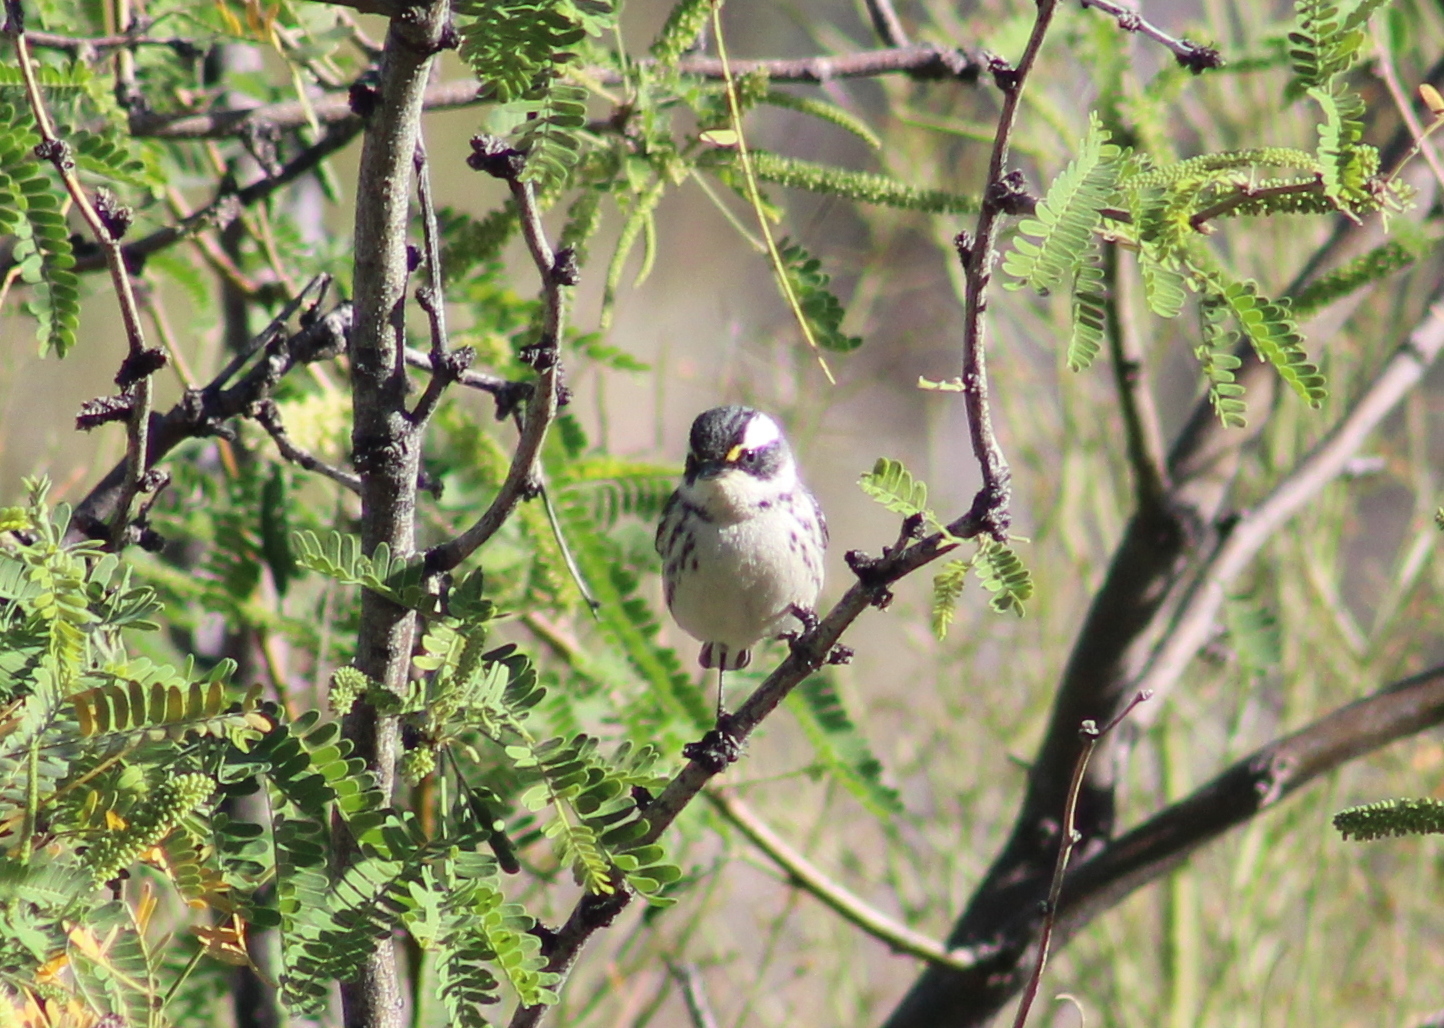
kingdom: Animalia
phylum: Chordata
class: Aves
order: Passeriformes
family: Parulidae
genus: Setophaga
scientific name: Setophaga nigrescens
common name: Black-throated gray warbler
